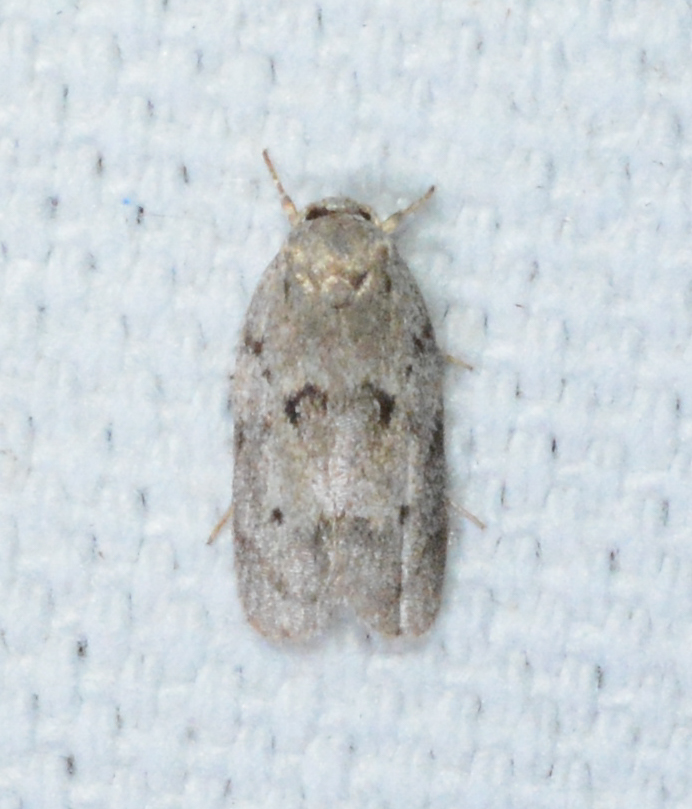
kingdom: Animalia
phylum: Arthropoda
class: Insecta
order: Lepidoptera
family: Depressariidae
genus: Antaeotricha
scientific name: Antaeotricha humilis
